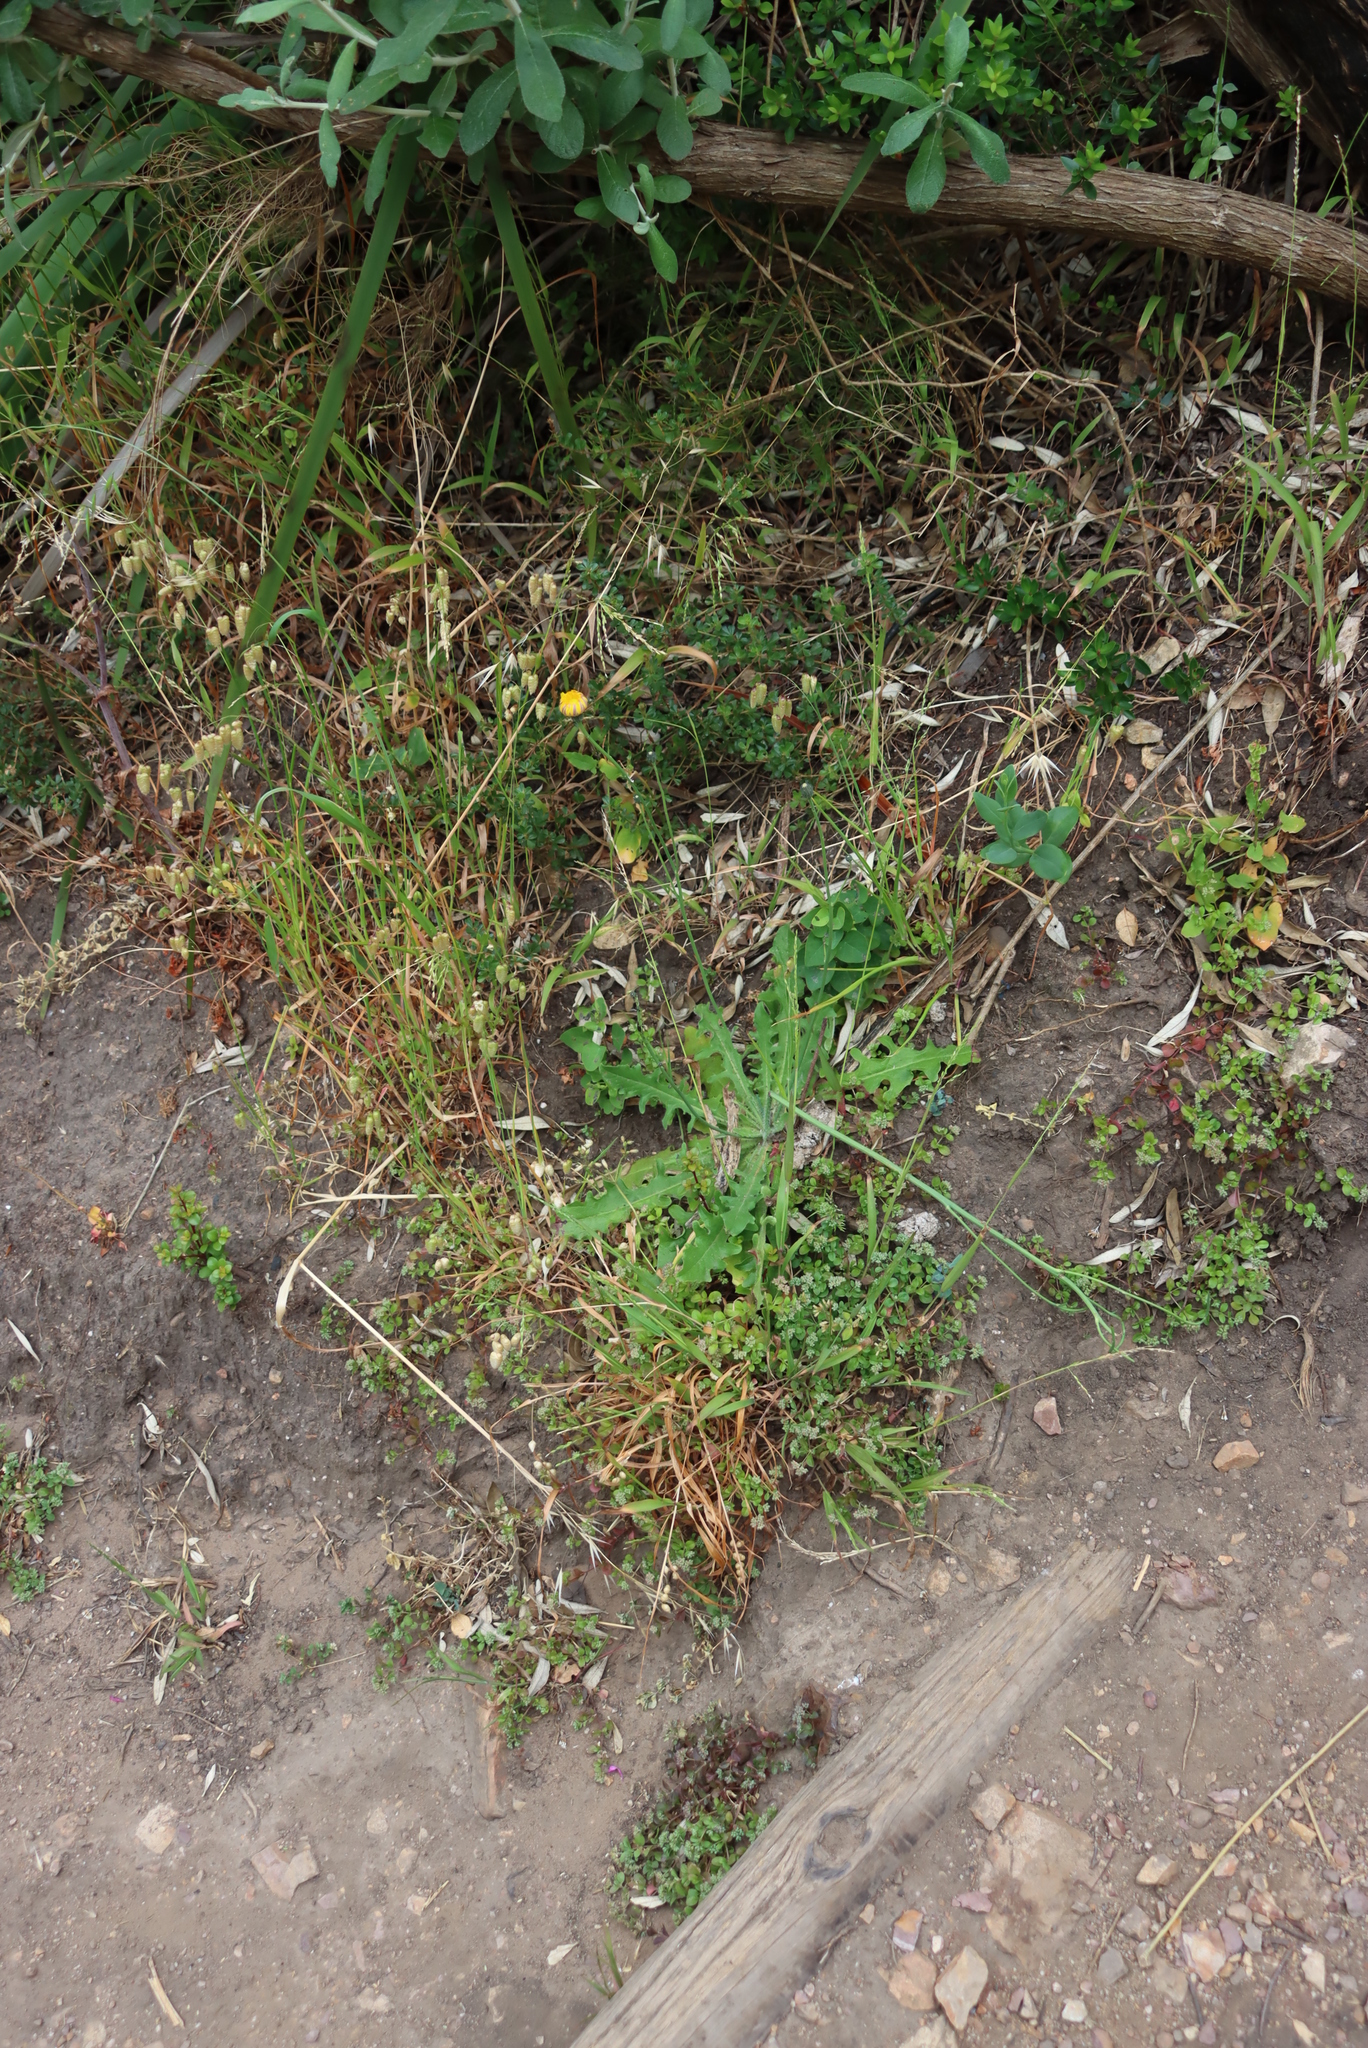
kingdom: Plantae
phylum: Tracheophyta
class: Magnoliopsida
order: Asterales
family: Asteraceae
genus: Hypochaeris
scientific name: Hypochaeris radicata
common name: Flatweed
